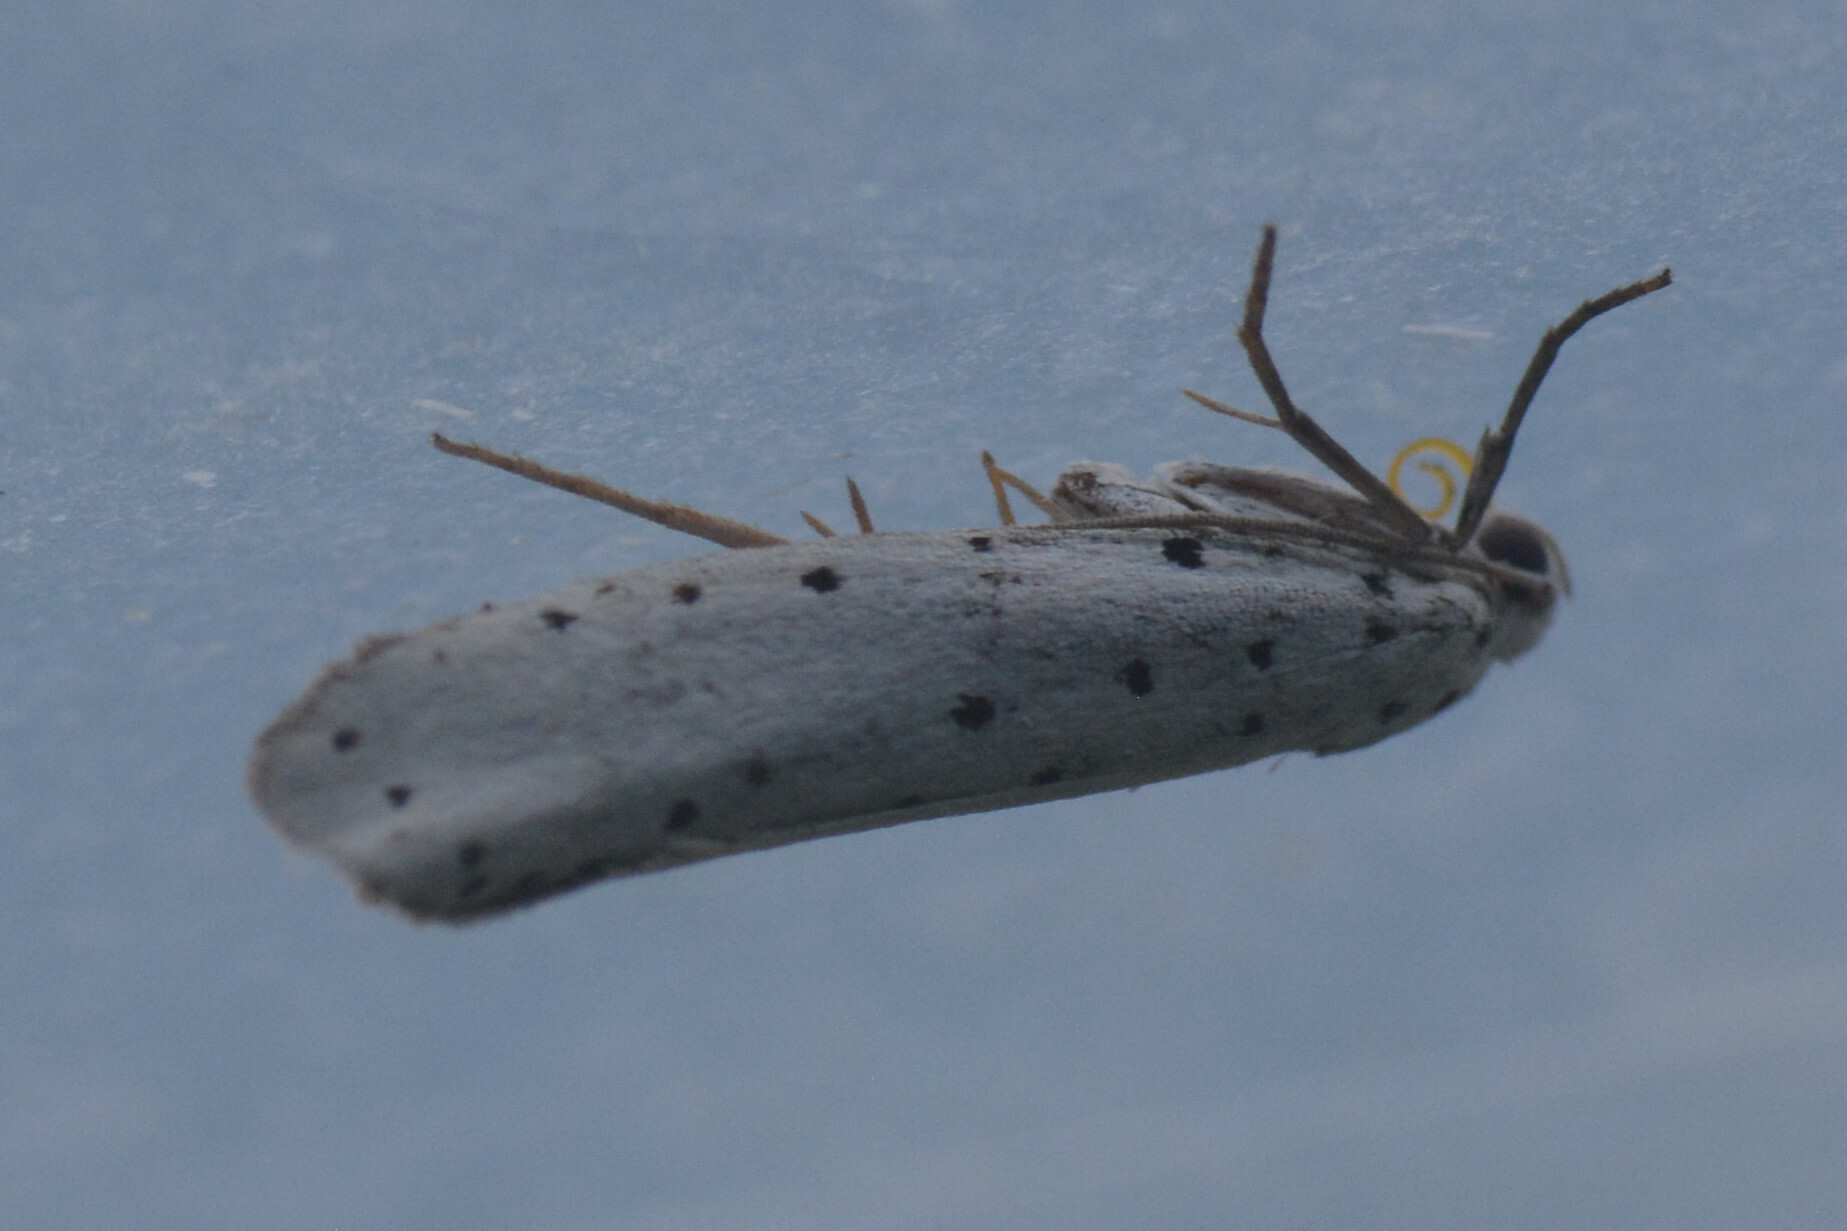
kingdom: Animalia
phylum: Arthropoda
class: Insecta
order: Lepidoptera
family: Yponomeutidae
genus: Yponomeuta
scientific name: Yponomeuta
